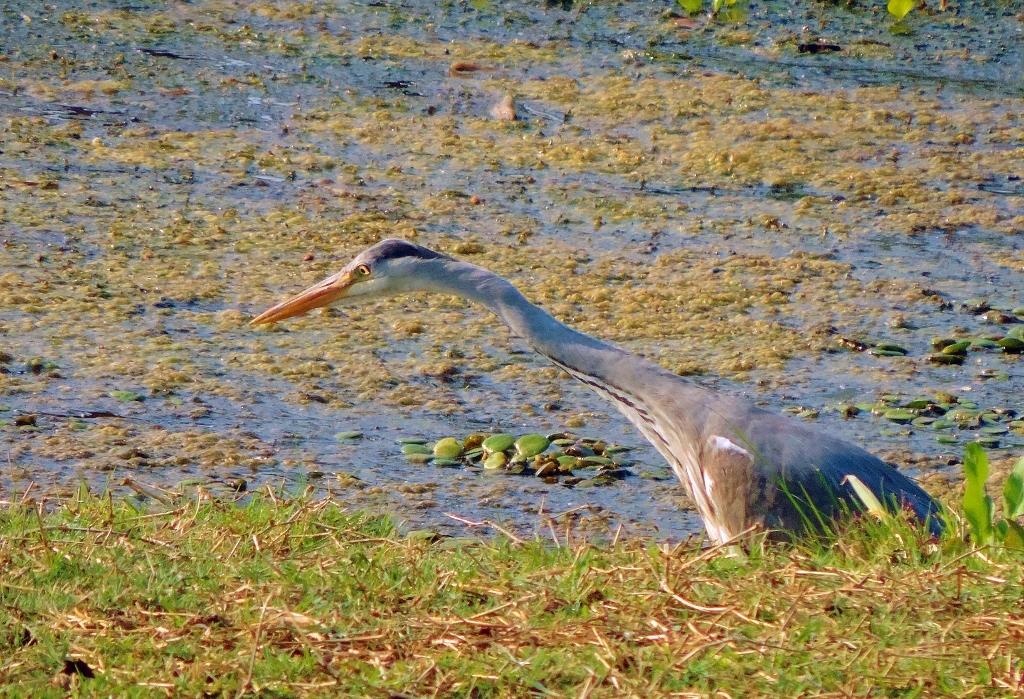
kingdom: Animalia
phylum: Chordata
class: Aves
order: Pelecaniformes
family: Ardeidae
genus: Ardea
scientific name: Ardea cinerea
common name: Grey heron
